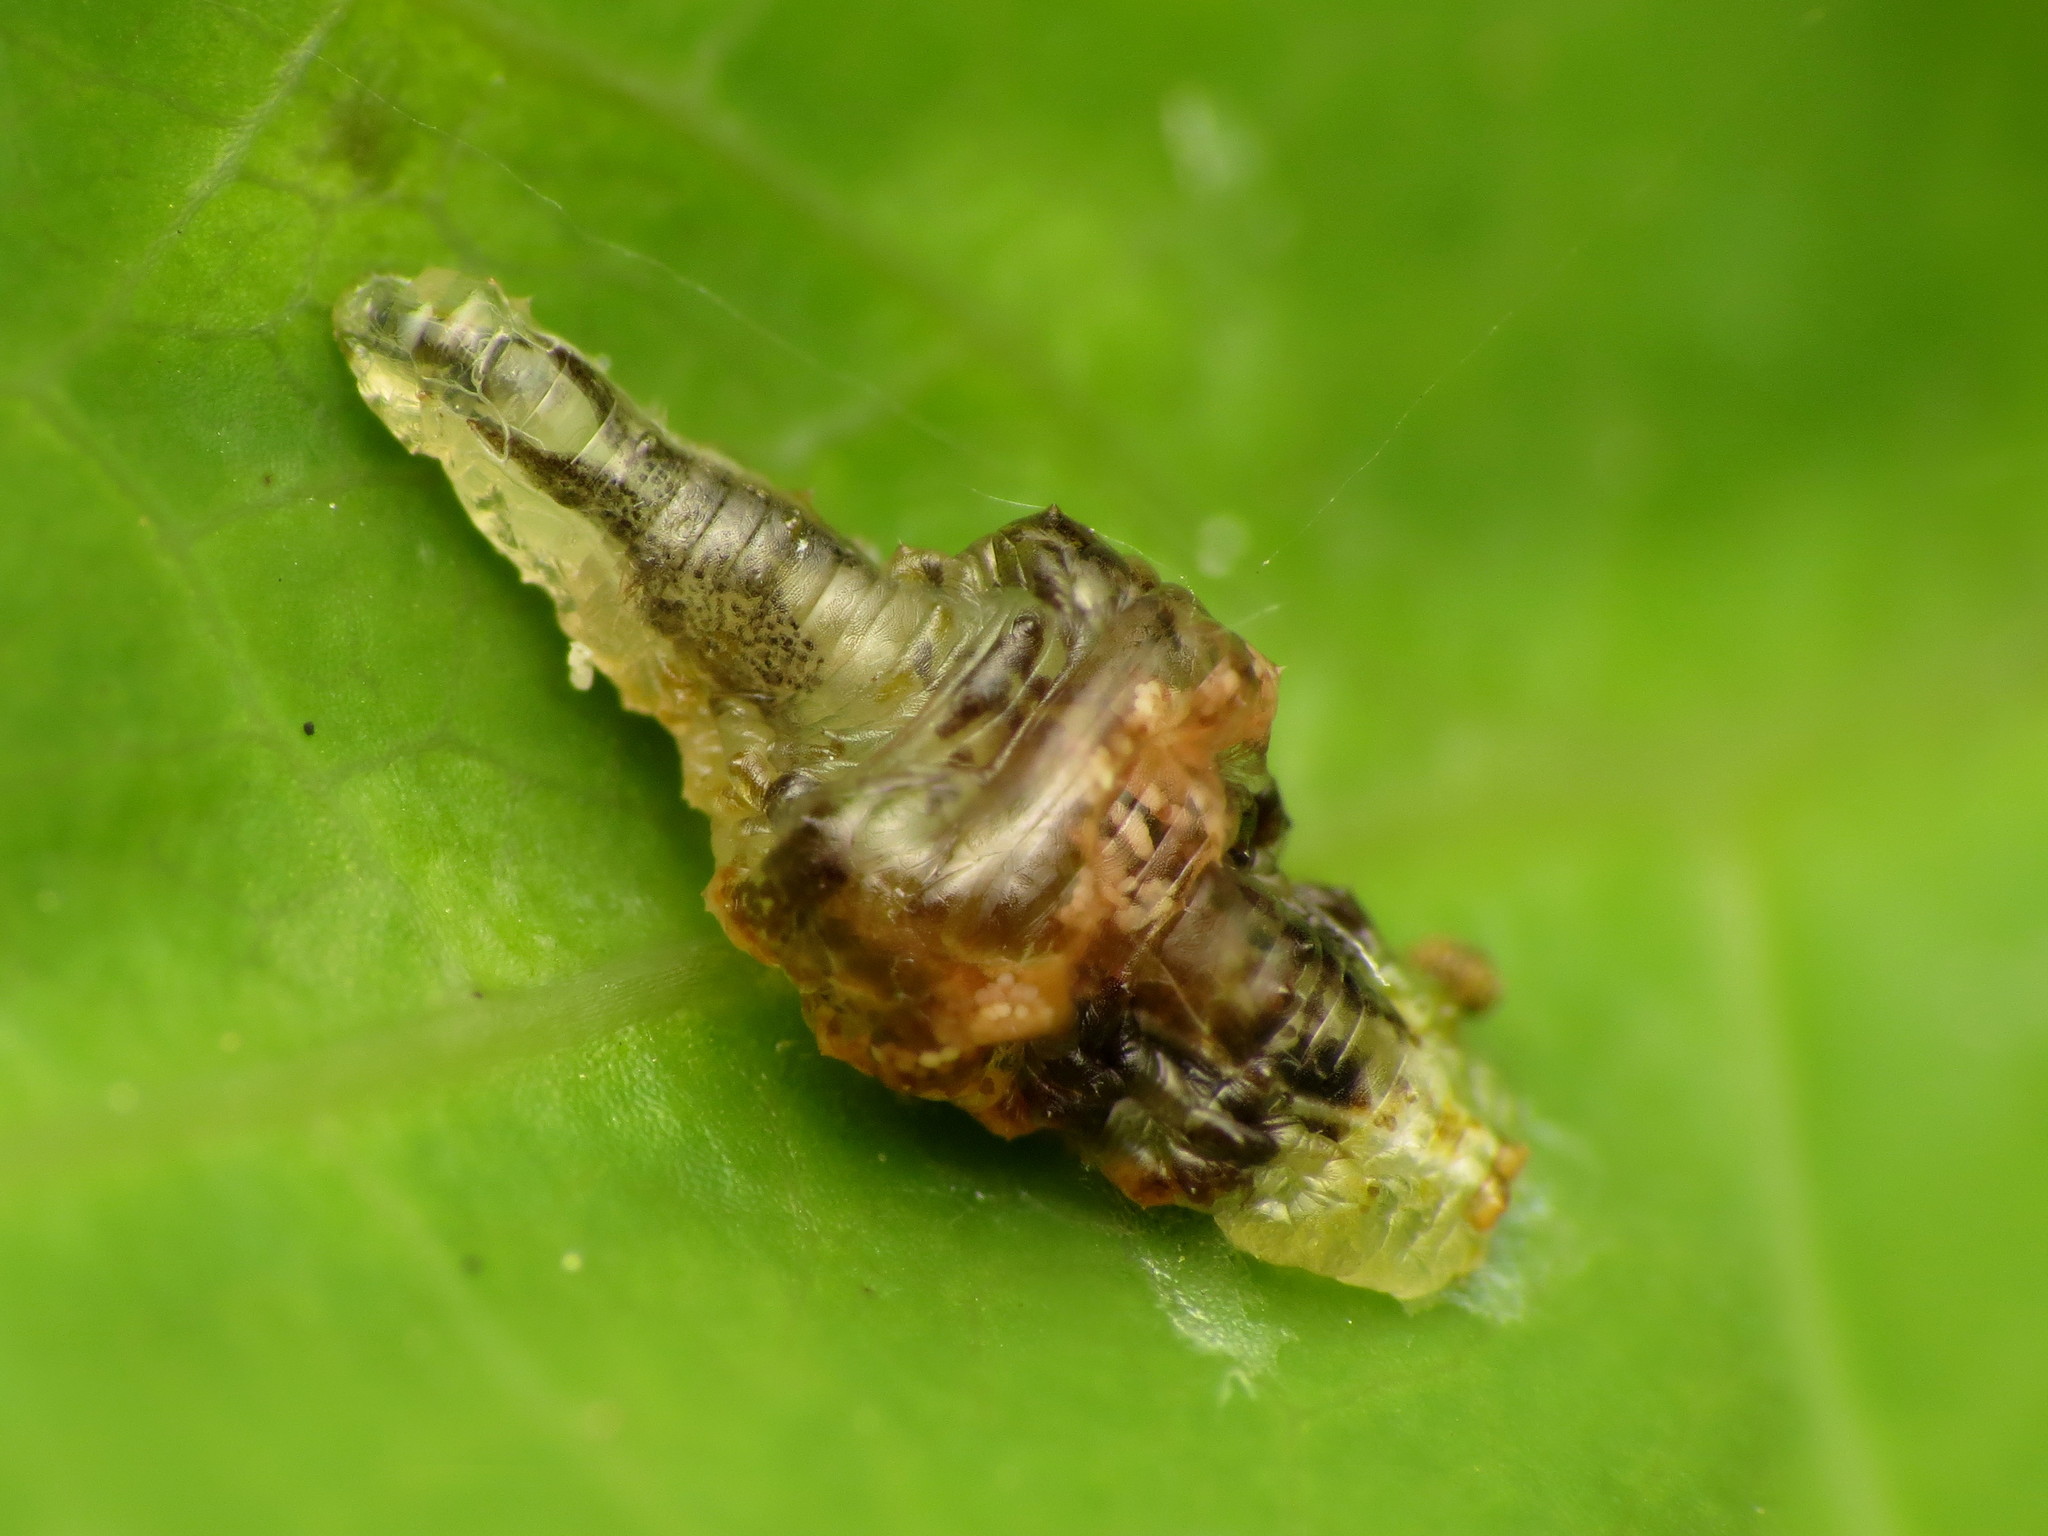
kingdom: Animalia
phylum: Arthropoda
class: Insecta
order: Diptera
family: Syrphidae
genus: Ocyptamus
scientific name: Ocyptamus fuscipennis
